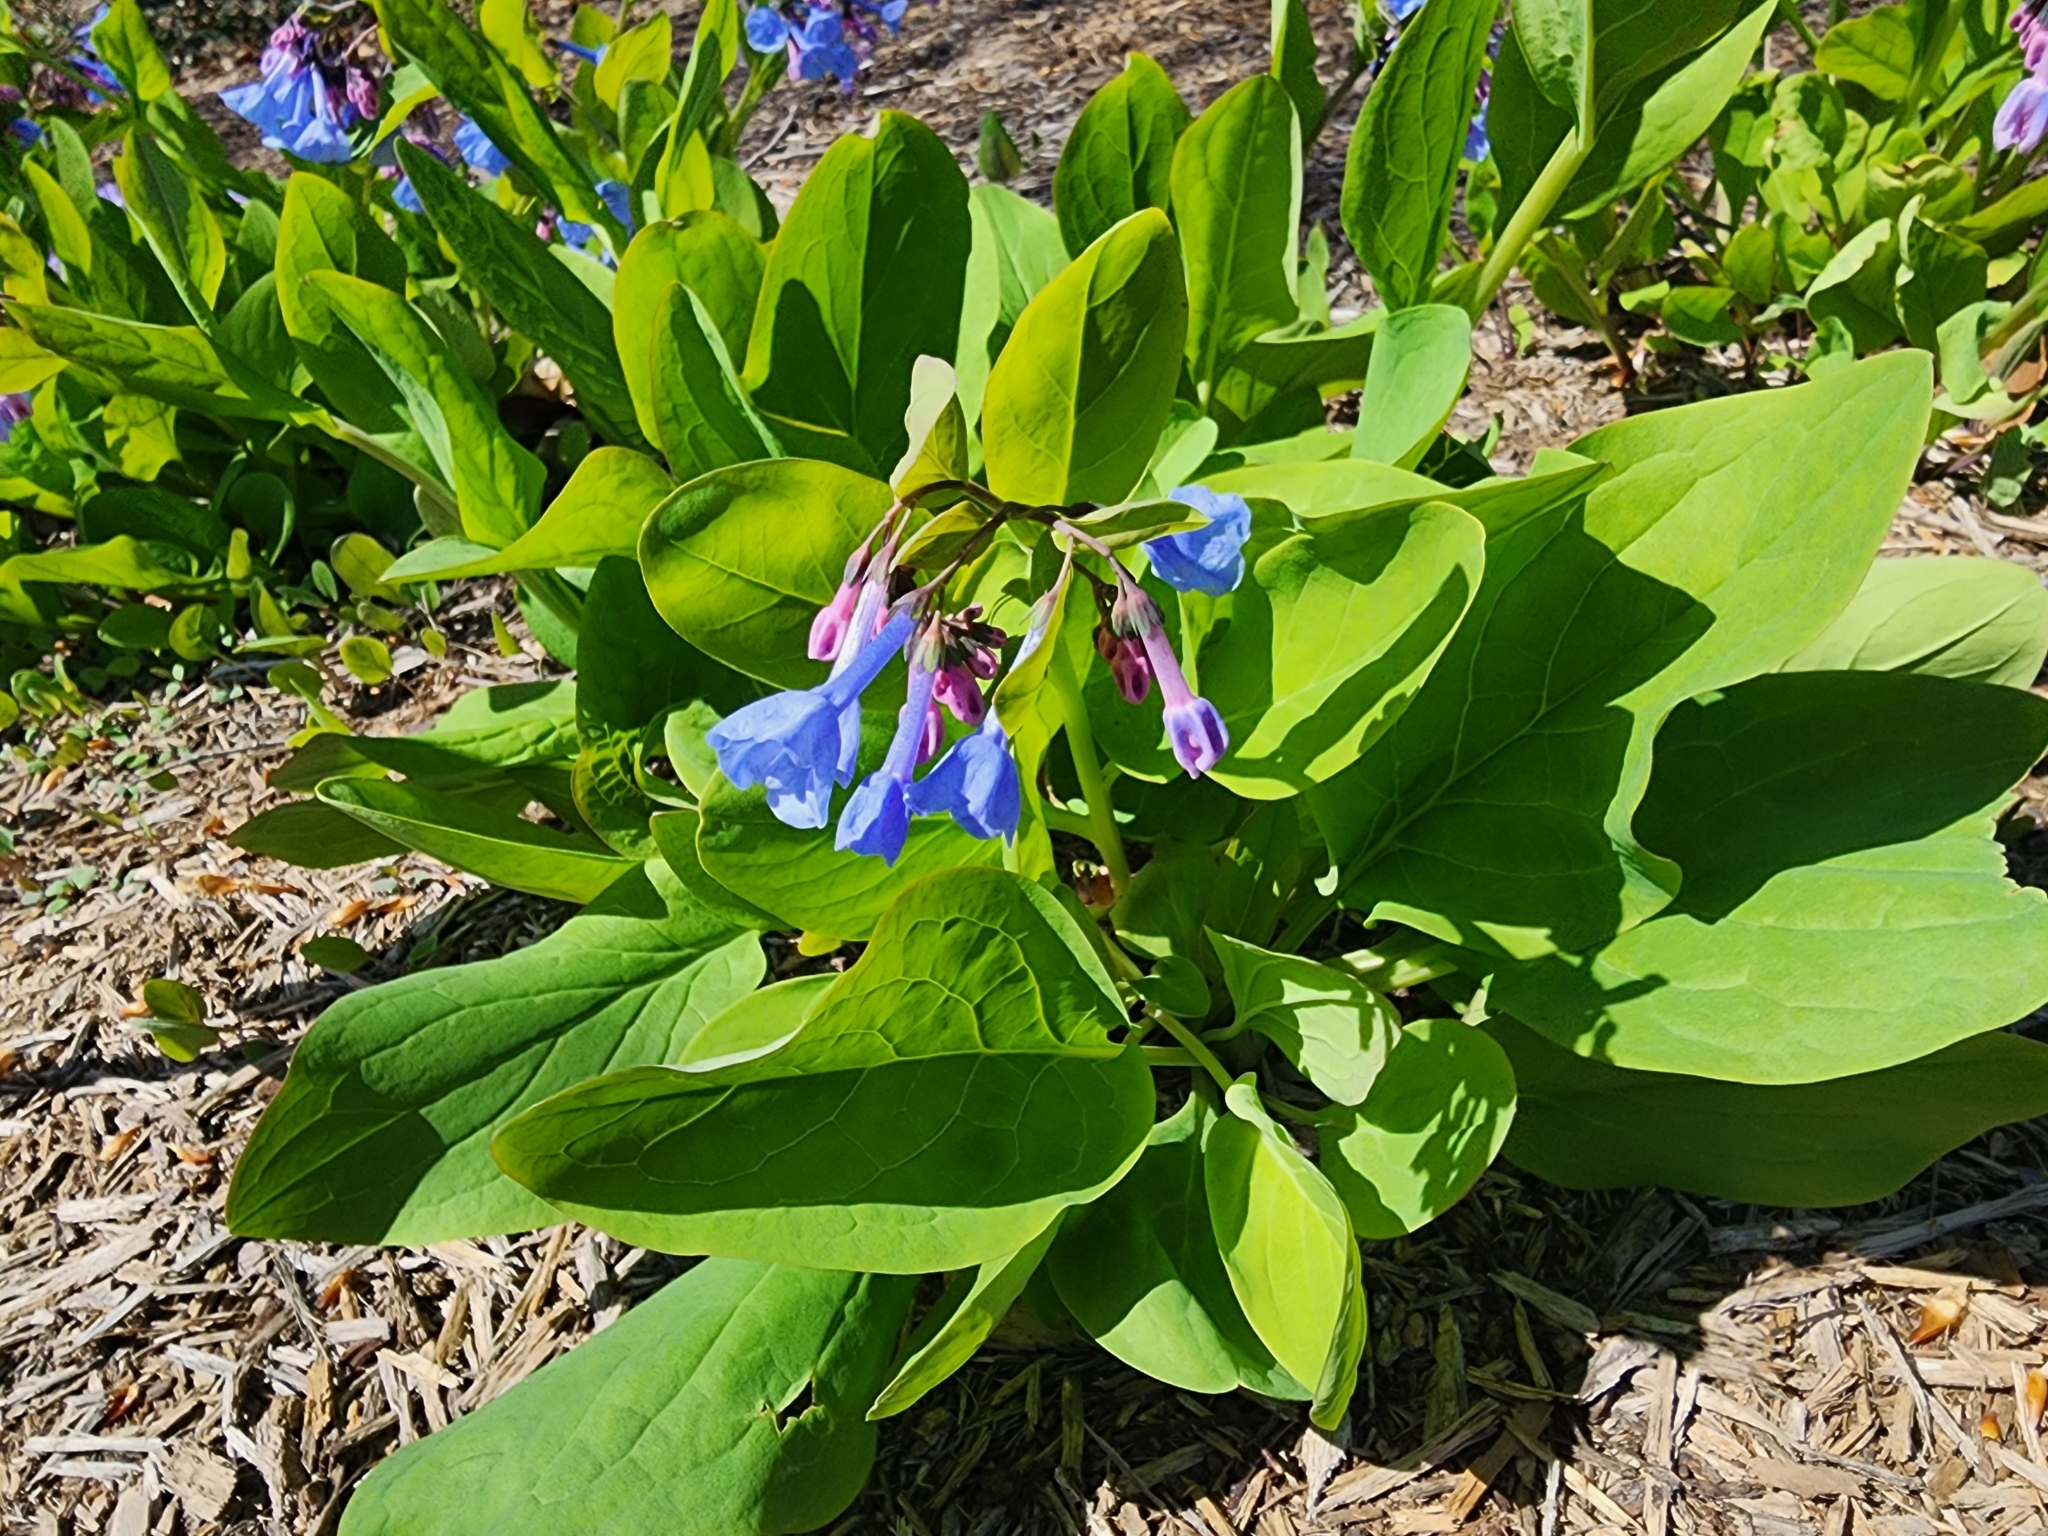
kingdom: Plantae
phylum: Tracheophyta
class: Magnoliopsida
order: Boraginales
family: Boraginaceae
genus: Mertensia
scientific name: Mertensia virginica
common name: Virginia bluebells
